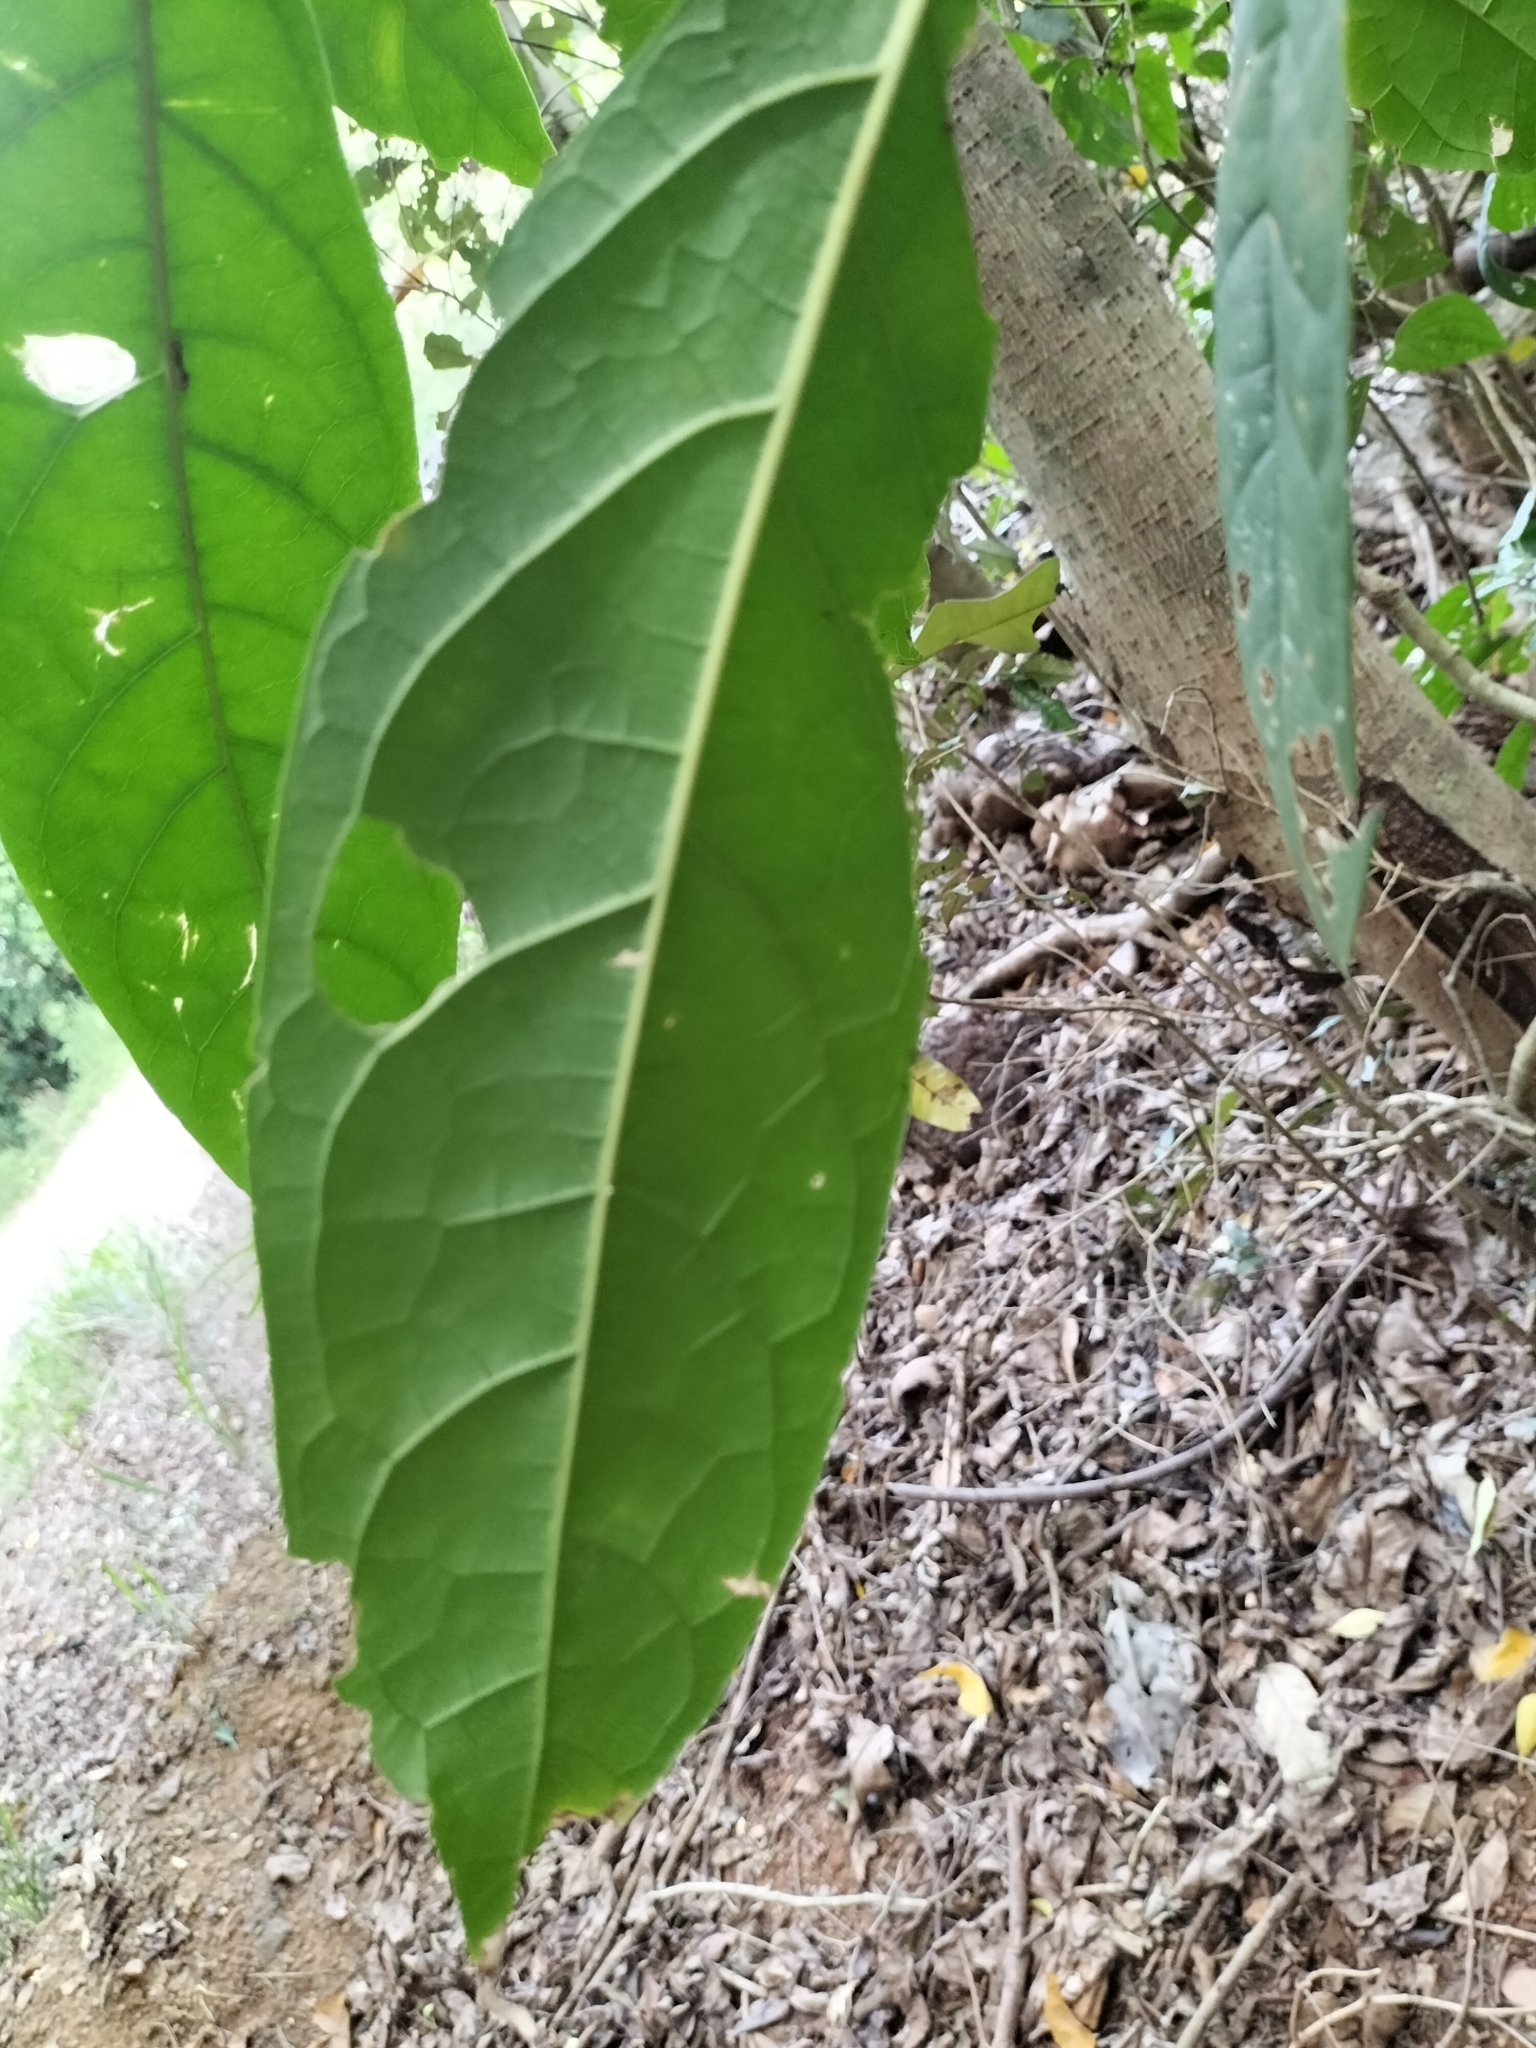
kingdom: Plantae
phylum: Tracheophyta
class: Magnoliopsida
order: Lamiales
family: Lamiaceae
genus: Oxera
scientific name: Oxera splendida
